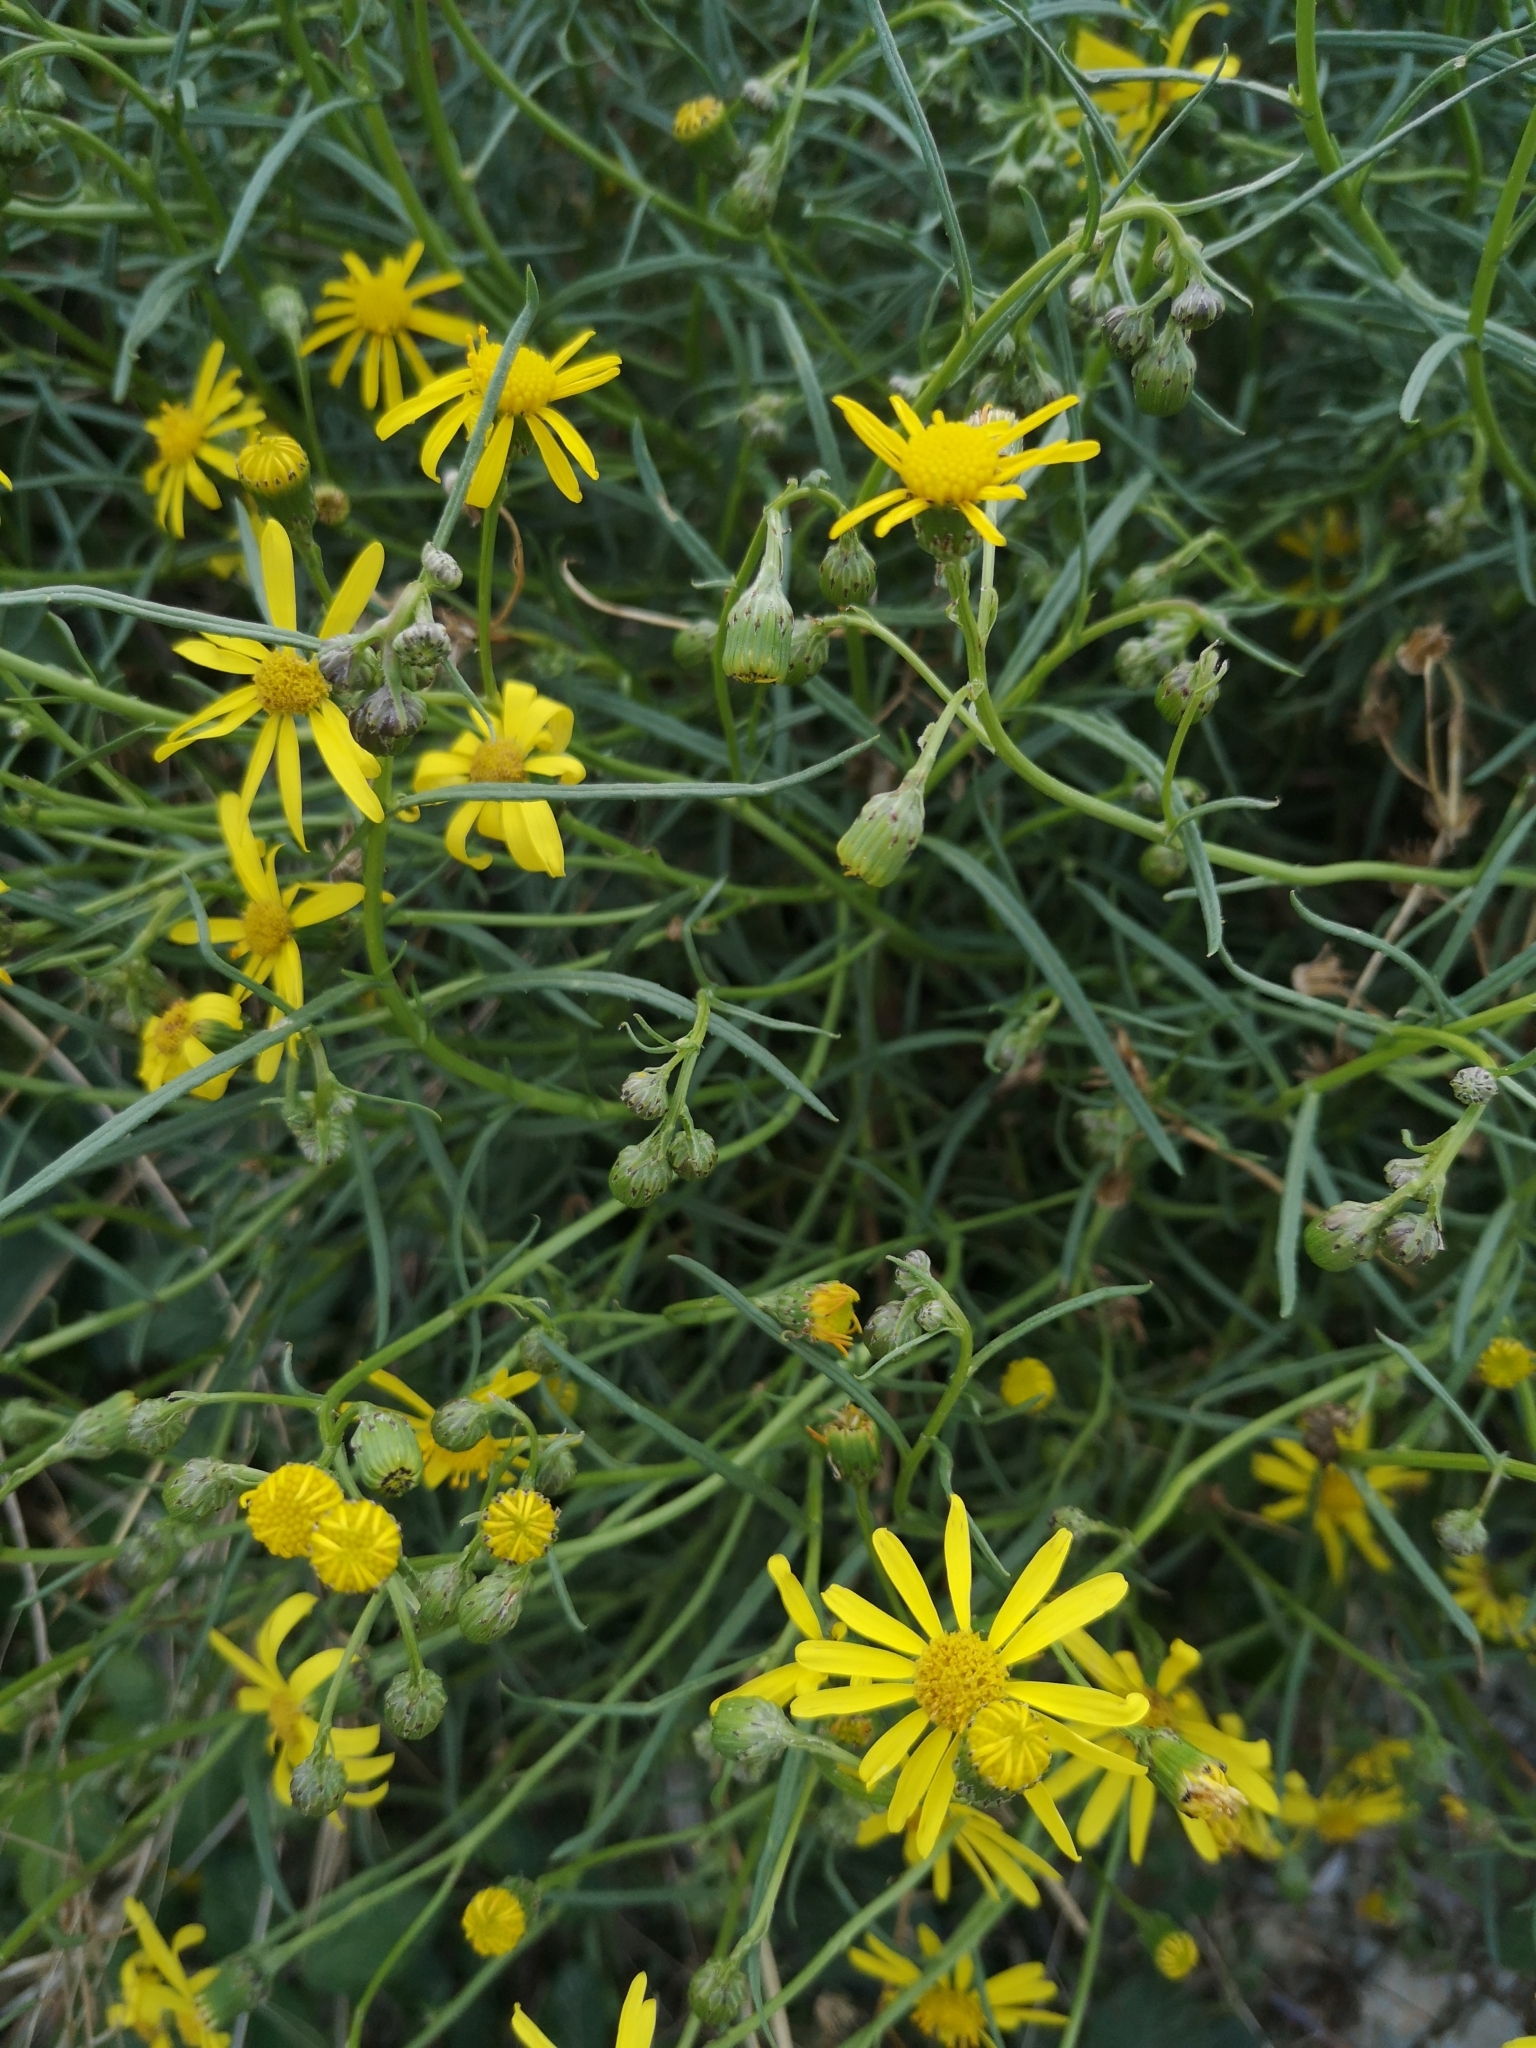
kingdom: Plantae
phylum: Tracheophyta
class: Magnoliopsida
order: Asterales
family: Asteraceae
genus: Senecio
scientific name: Senecio inaequidens
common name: Narrow-leaved ragwort
